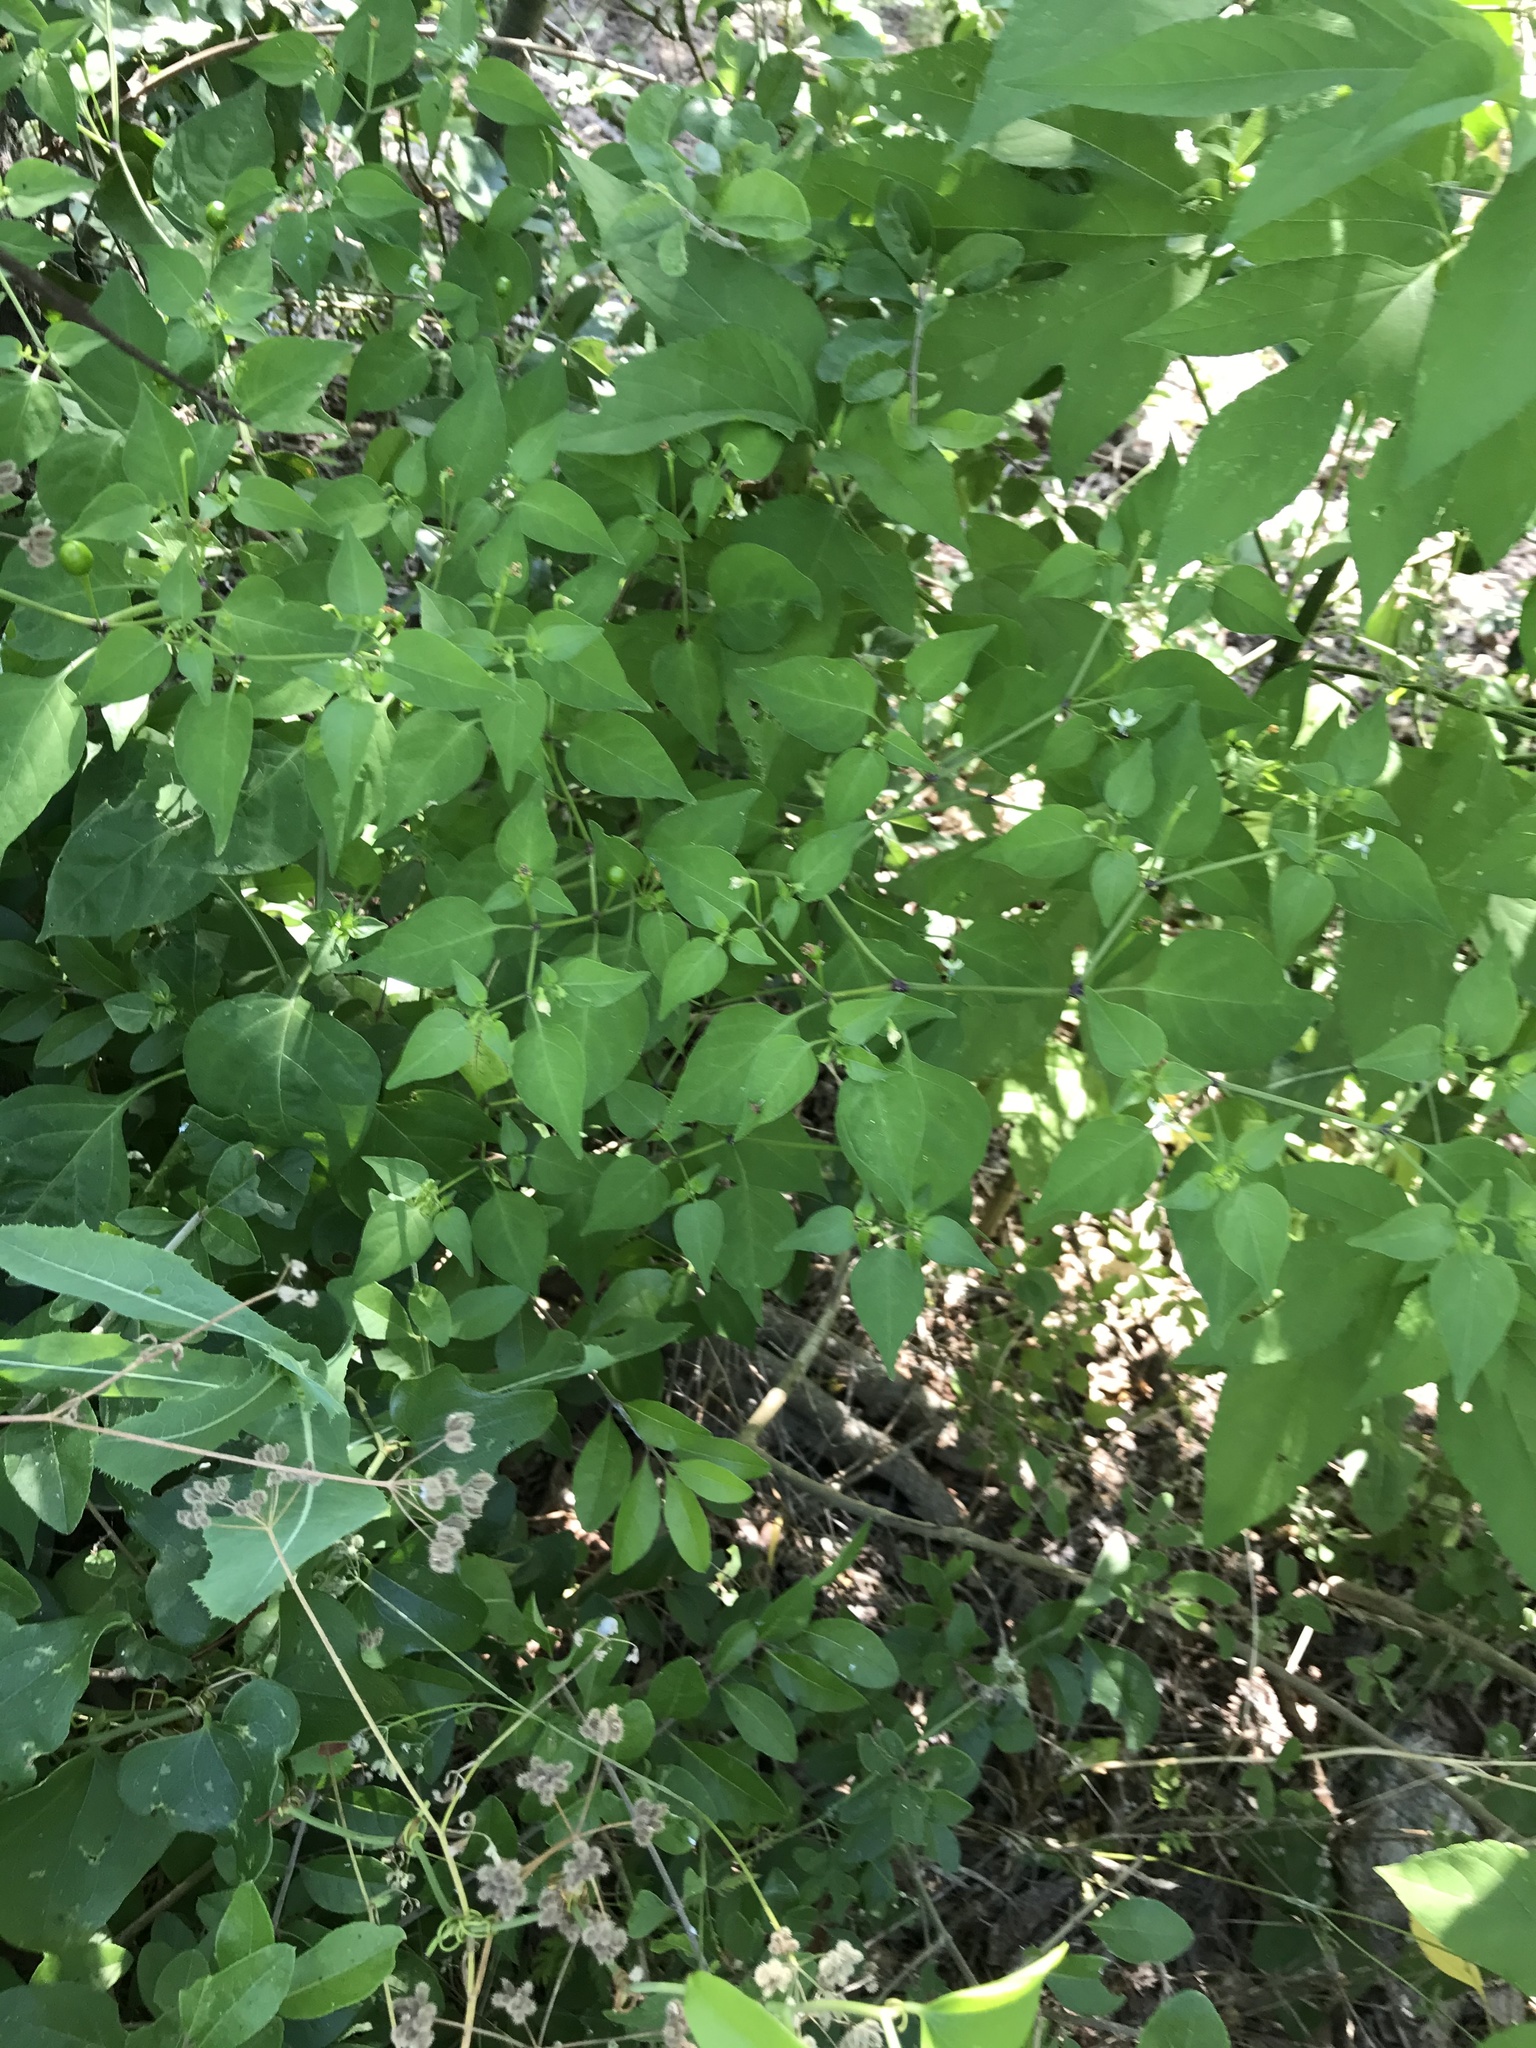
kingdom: Plantae
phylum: Tracheophyta
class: Magnoliopsida
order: Solanales
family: Solanaceae
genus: Capsicum
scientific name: Capsicum annuum
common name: Sweet pepper
